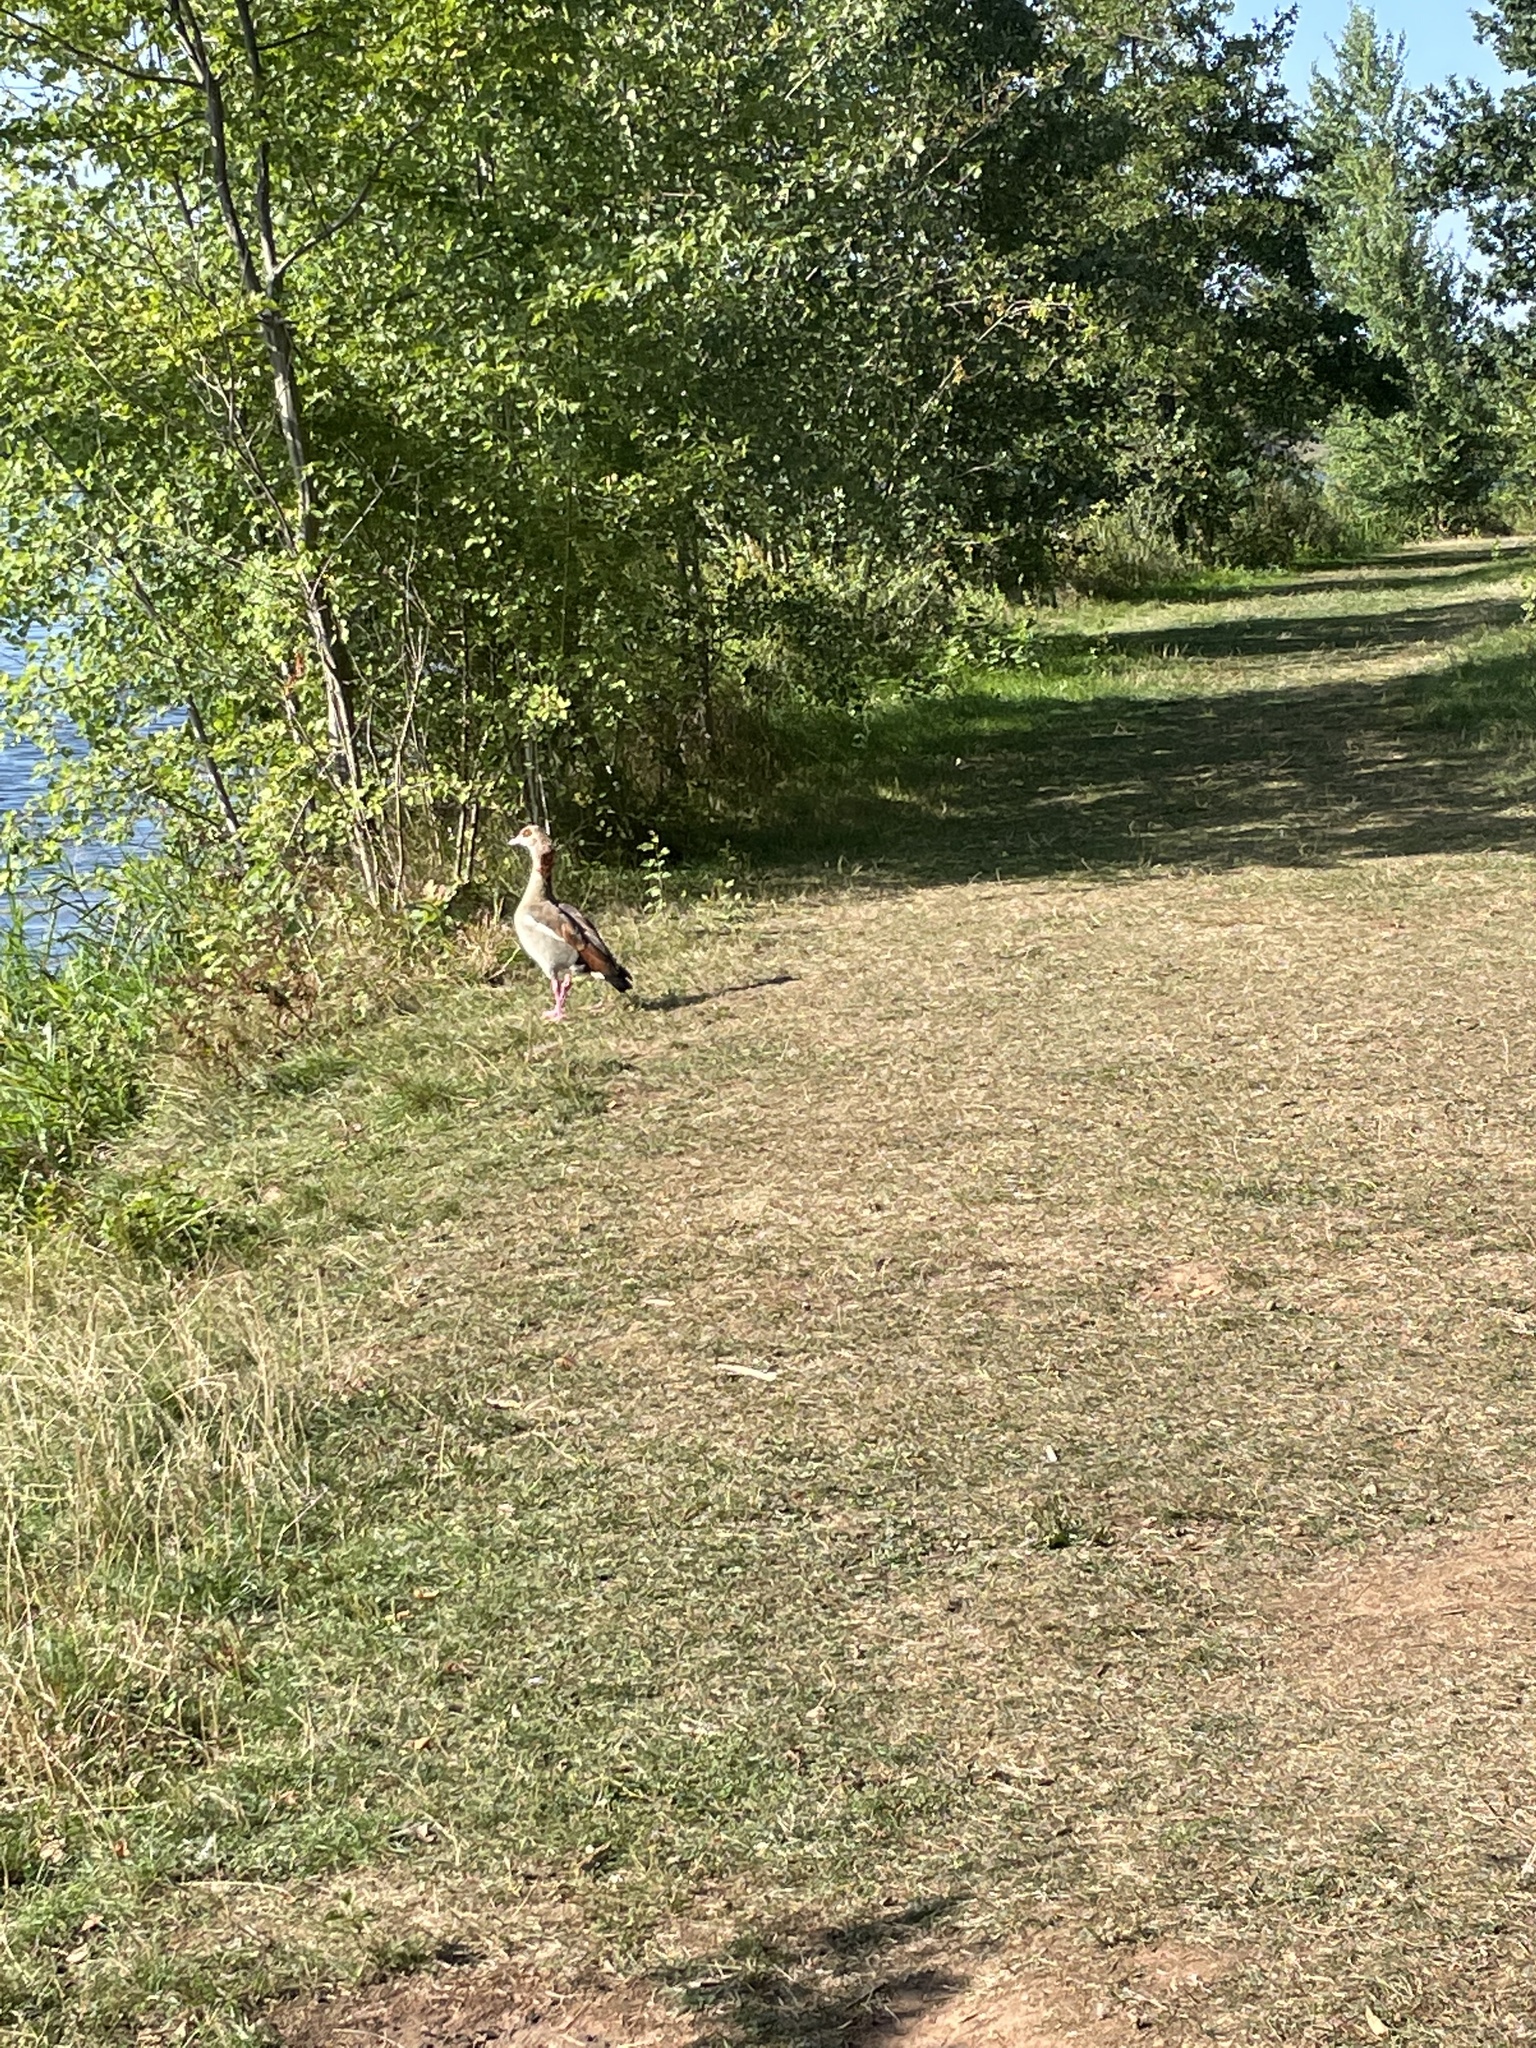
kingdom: Animalia
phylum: Chordata
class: Aves
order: Anseriformes
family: Anatidae
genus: Alopochen
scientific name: Alopochen aegyptiaca
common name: Egyptian goose
